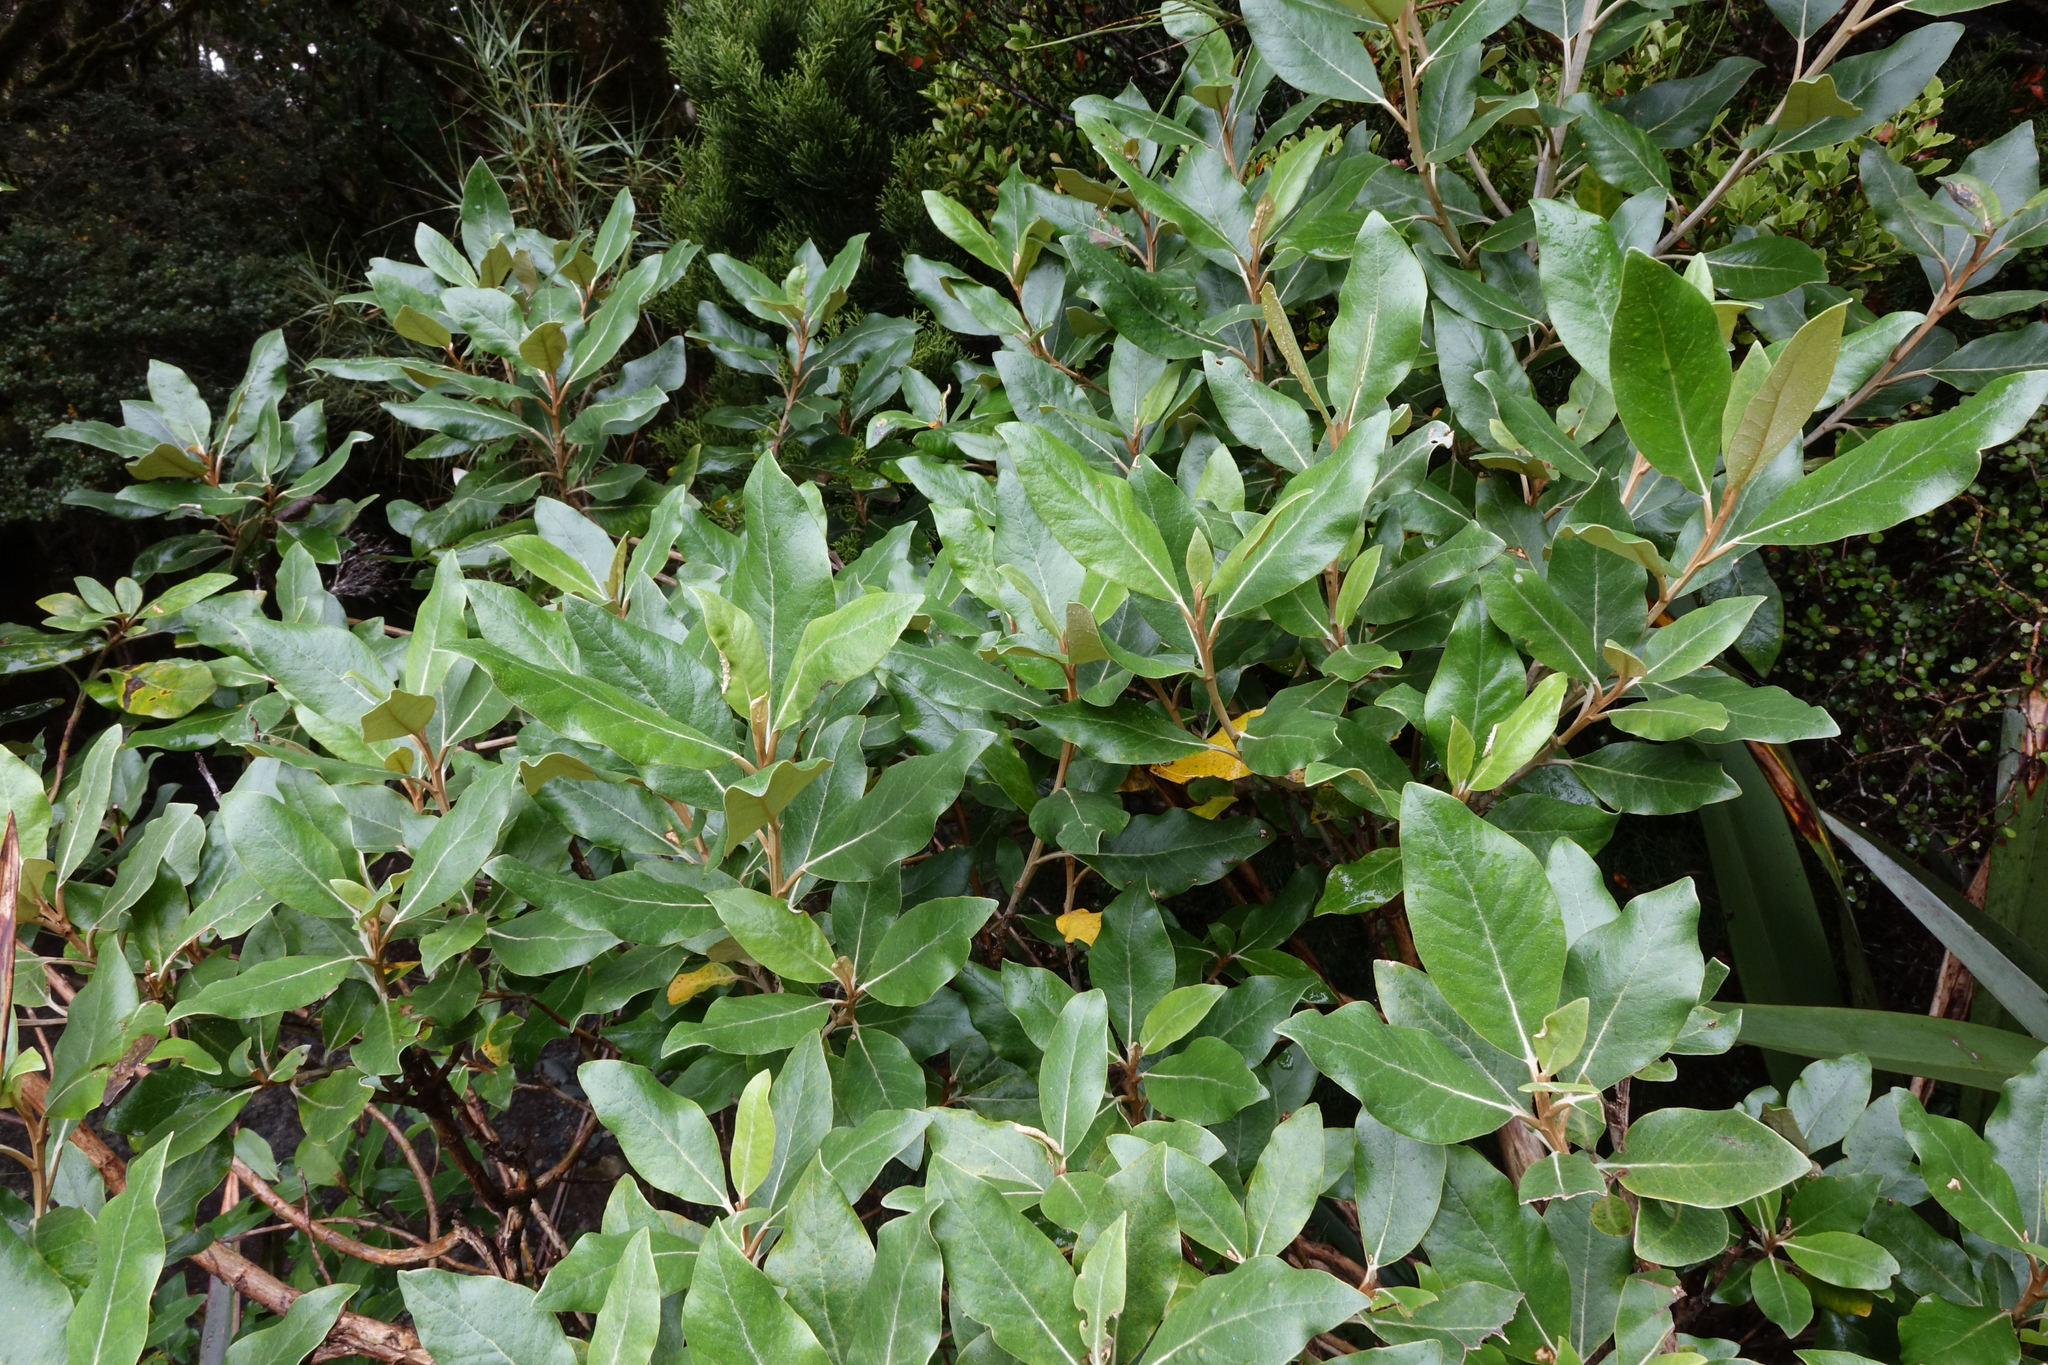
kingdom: Plantae
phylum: Tracheophyta
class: Magnoliopsida
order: Asterales
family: Asteraceae
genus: Olearia
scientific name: Olearia avicenniifolia
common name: Mangrove-leaf daisybush
